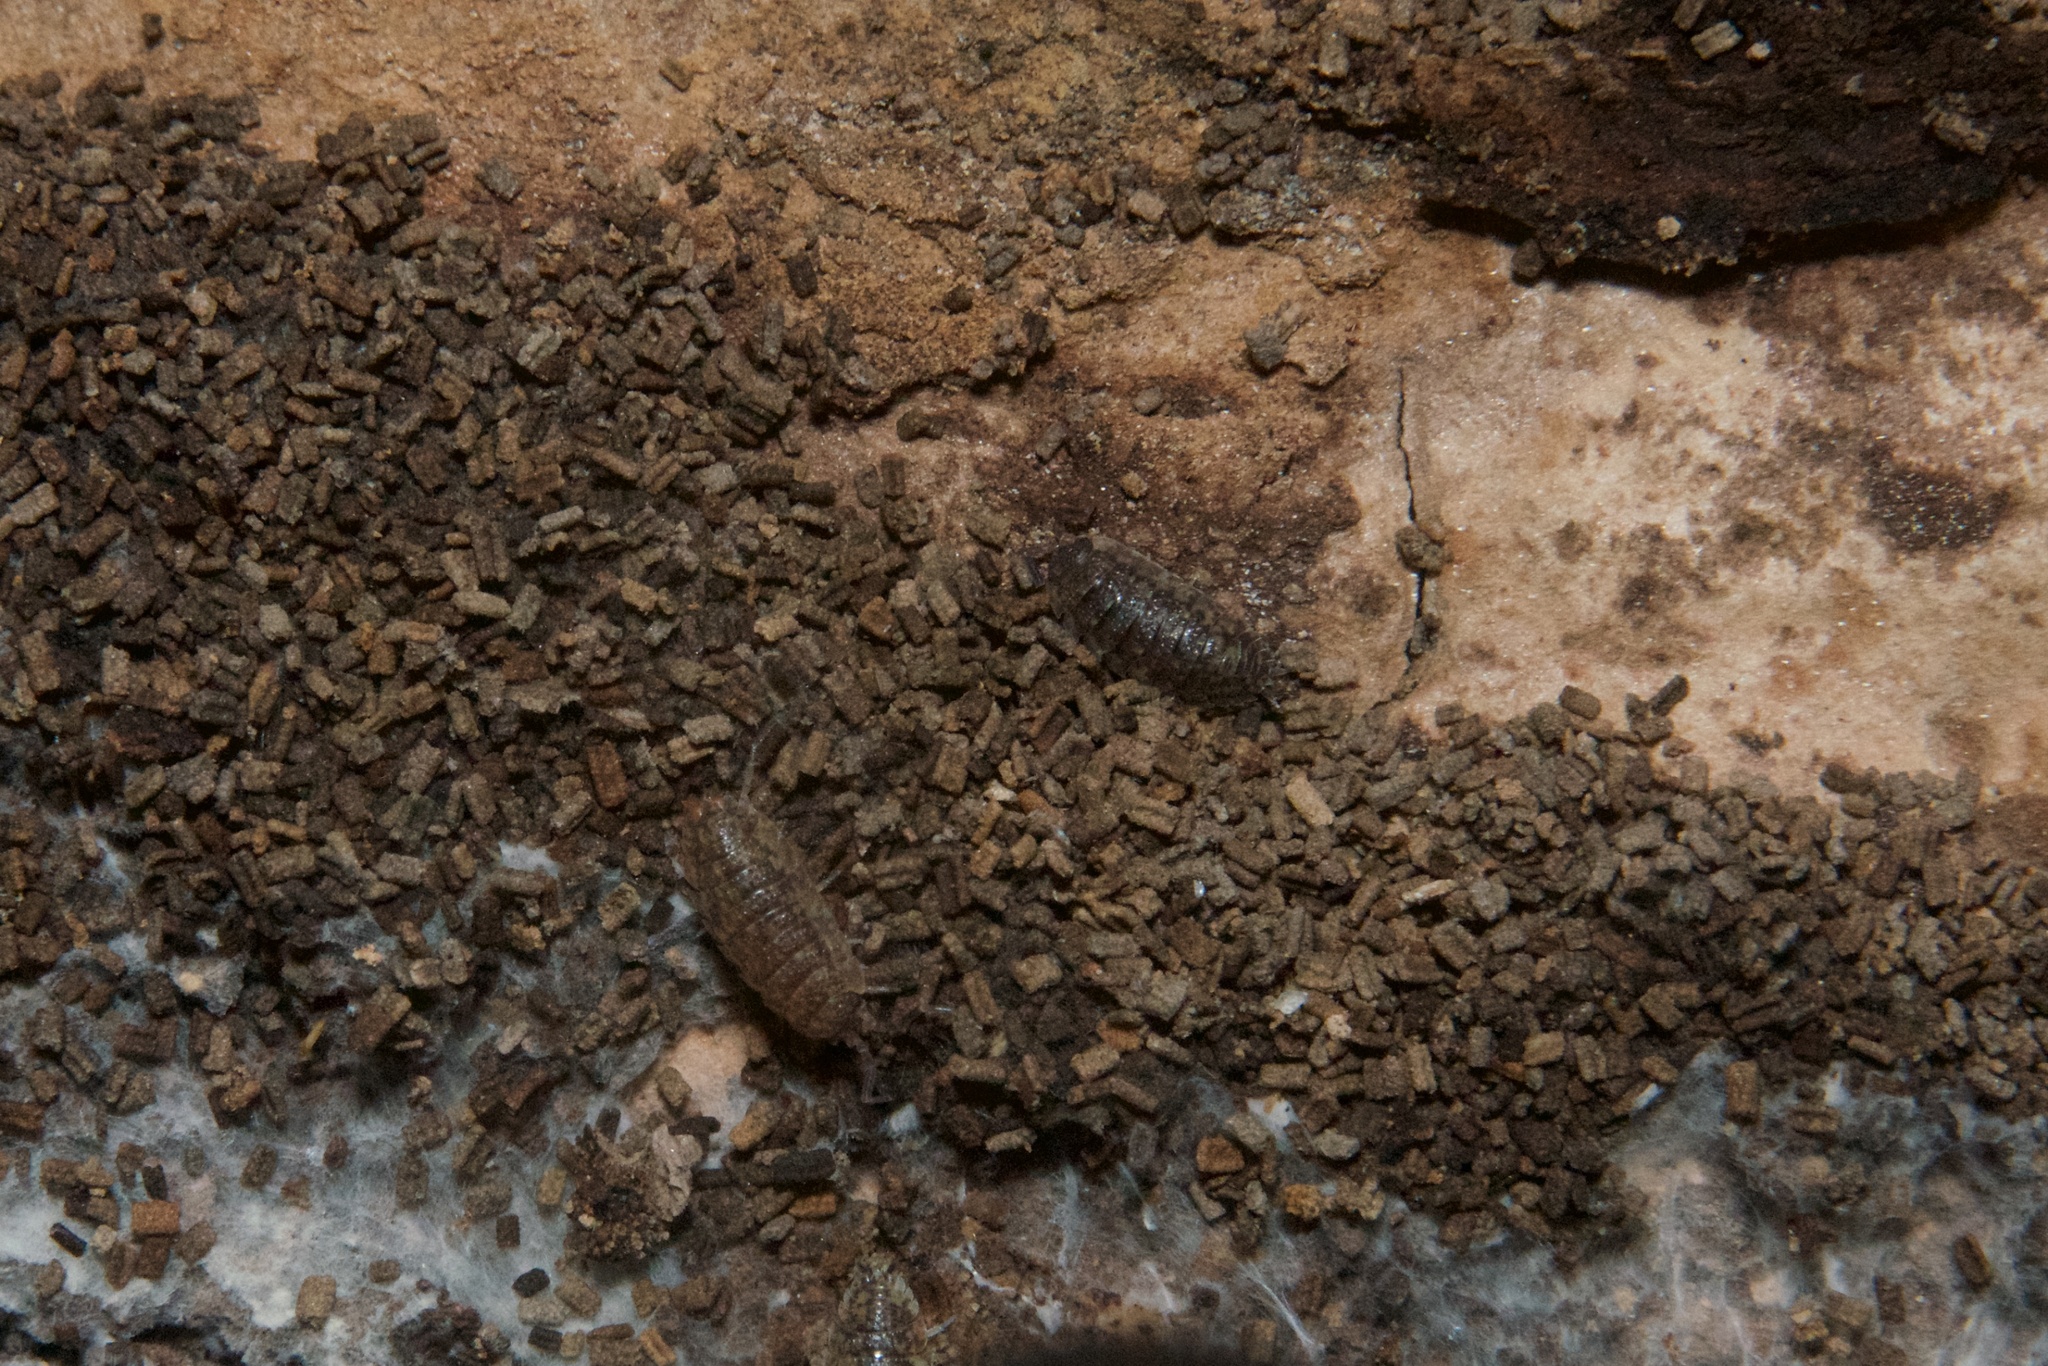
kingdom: Animalia
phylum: Arthropoda
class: Malacostraca
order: Isopoda
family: Porcellionidae
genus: Porcellio
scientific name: Porcellio scaber
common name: Common rough woodlouse
